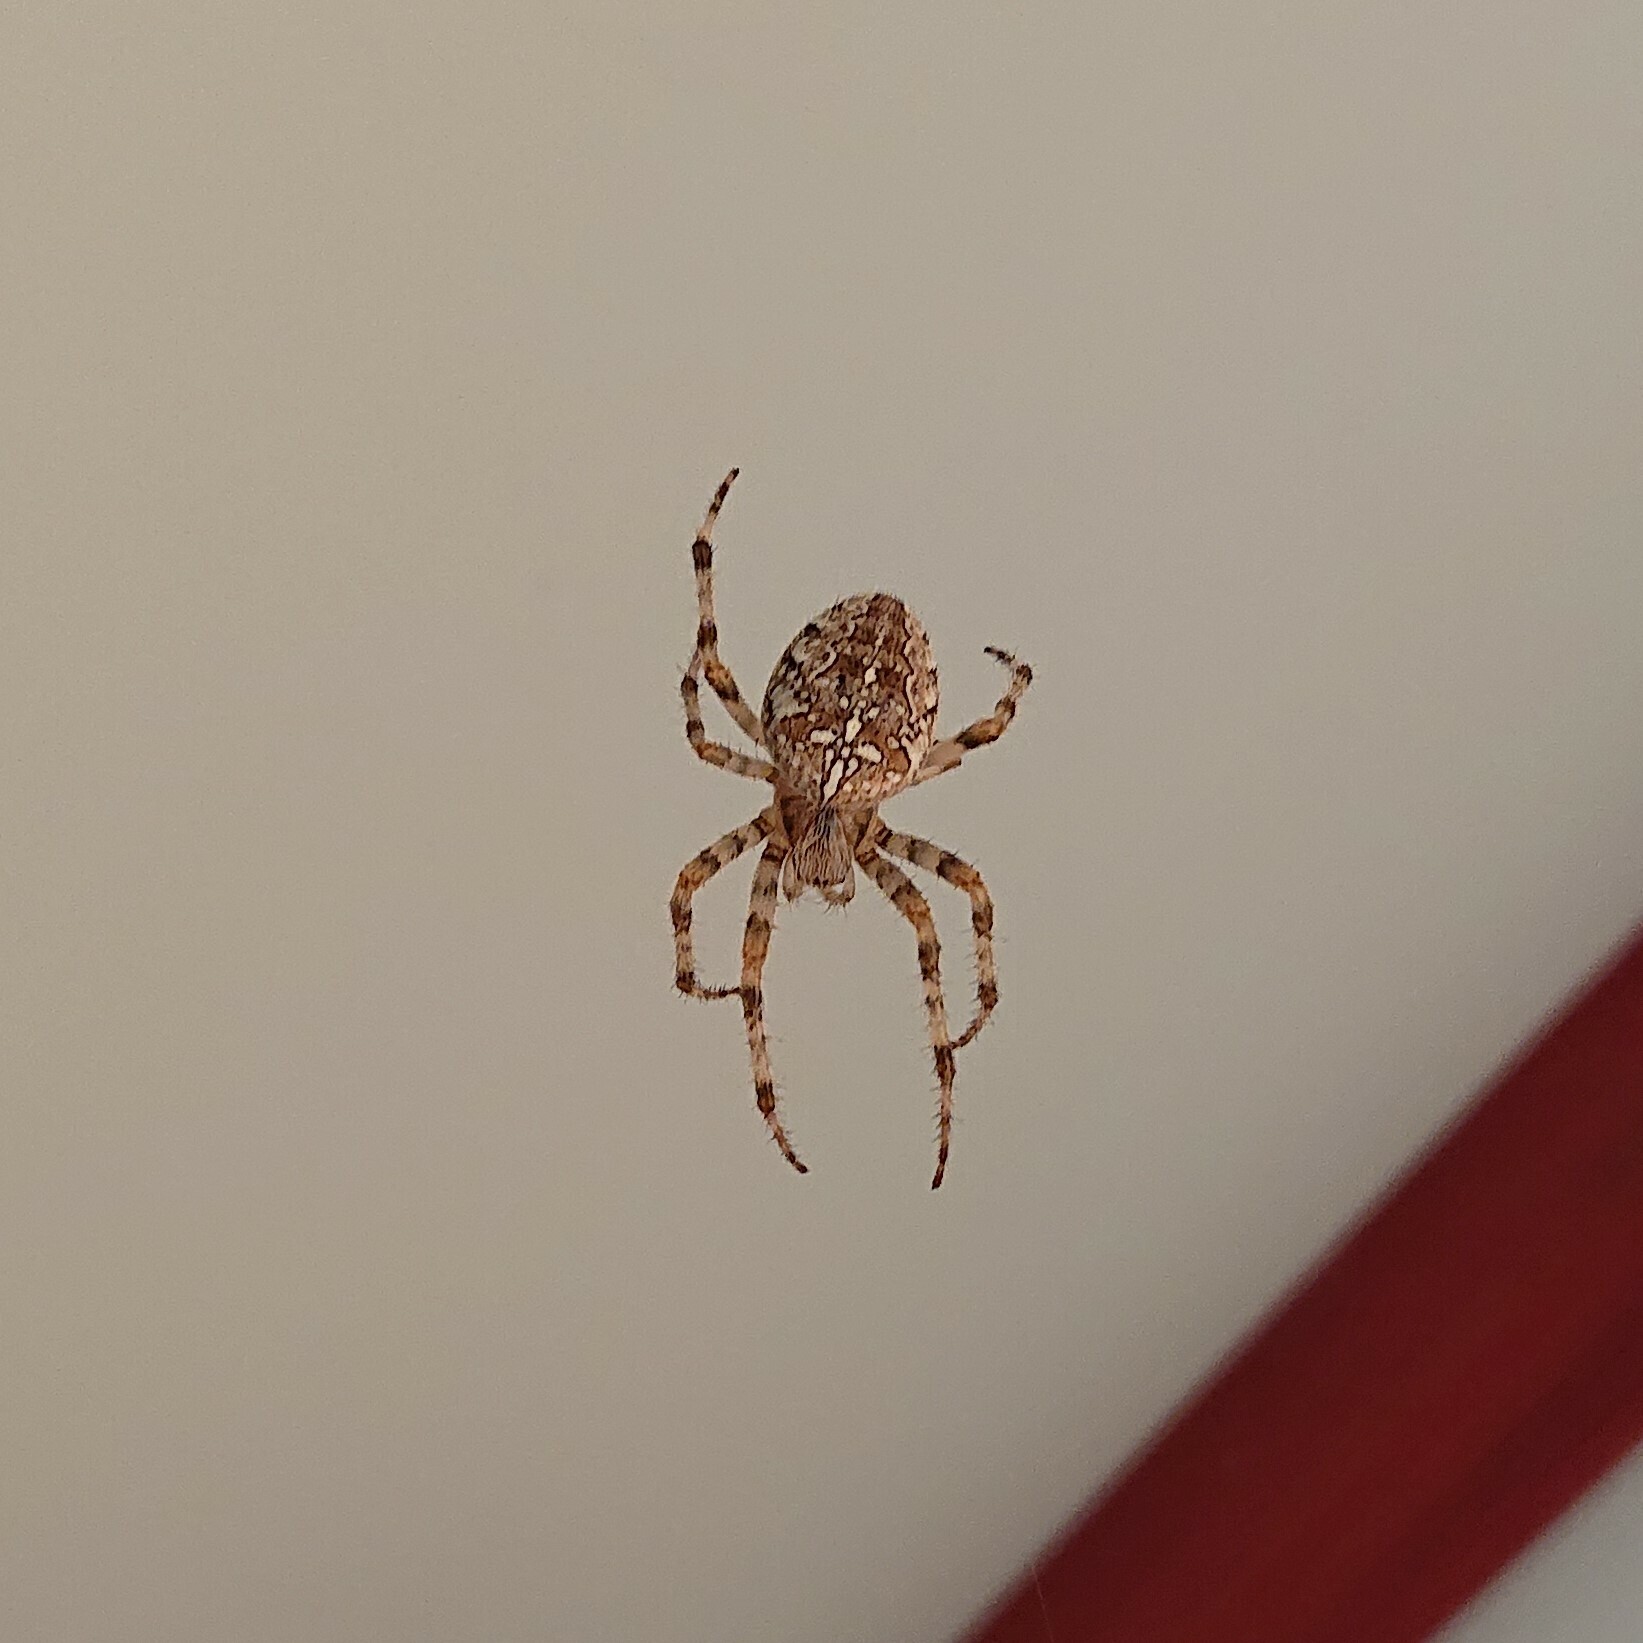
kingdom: Animalia
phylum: Arthropoda
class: Arachnida
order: Araneae
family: Araneidae
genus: Araneus
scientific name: Araneus diadematus
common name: Cross orbweaver
